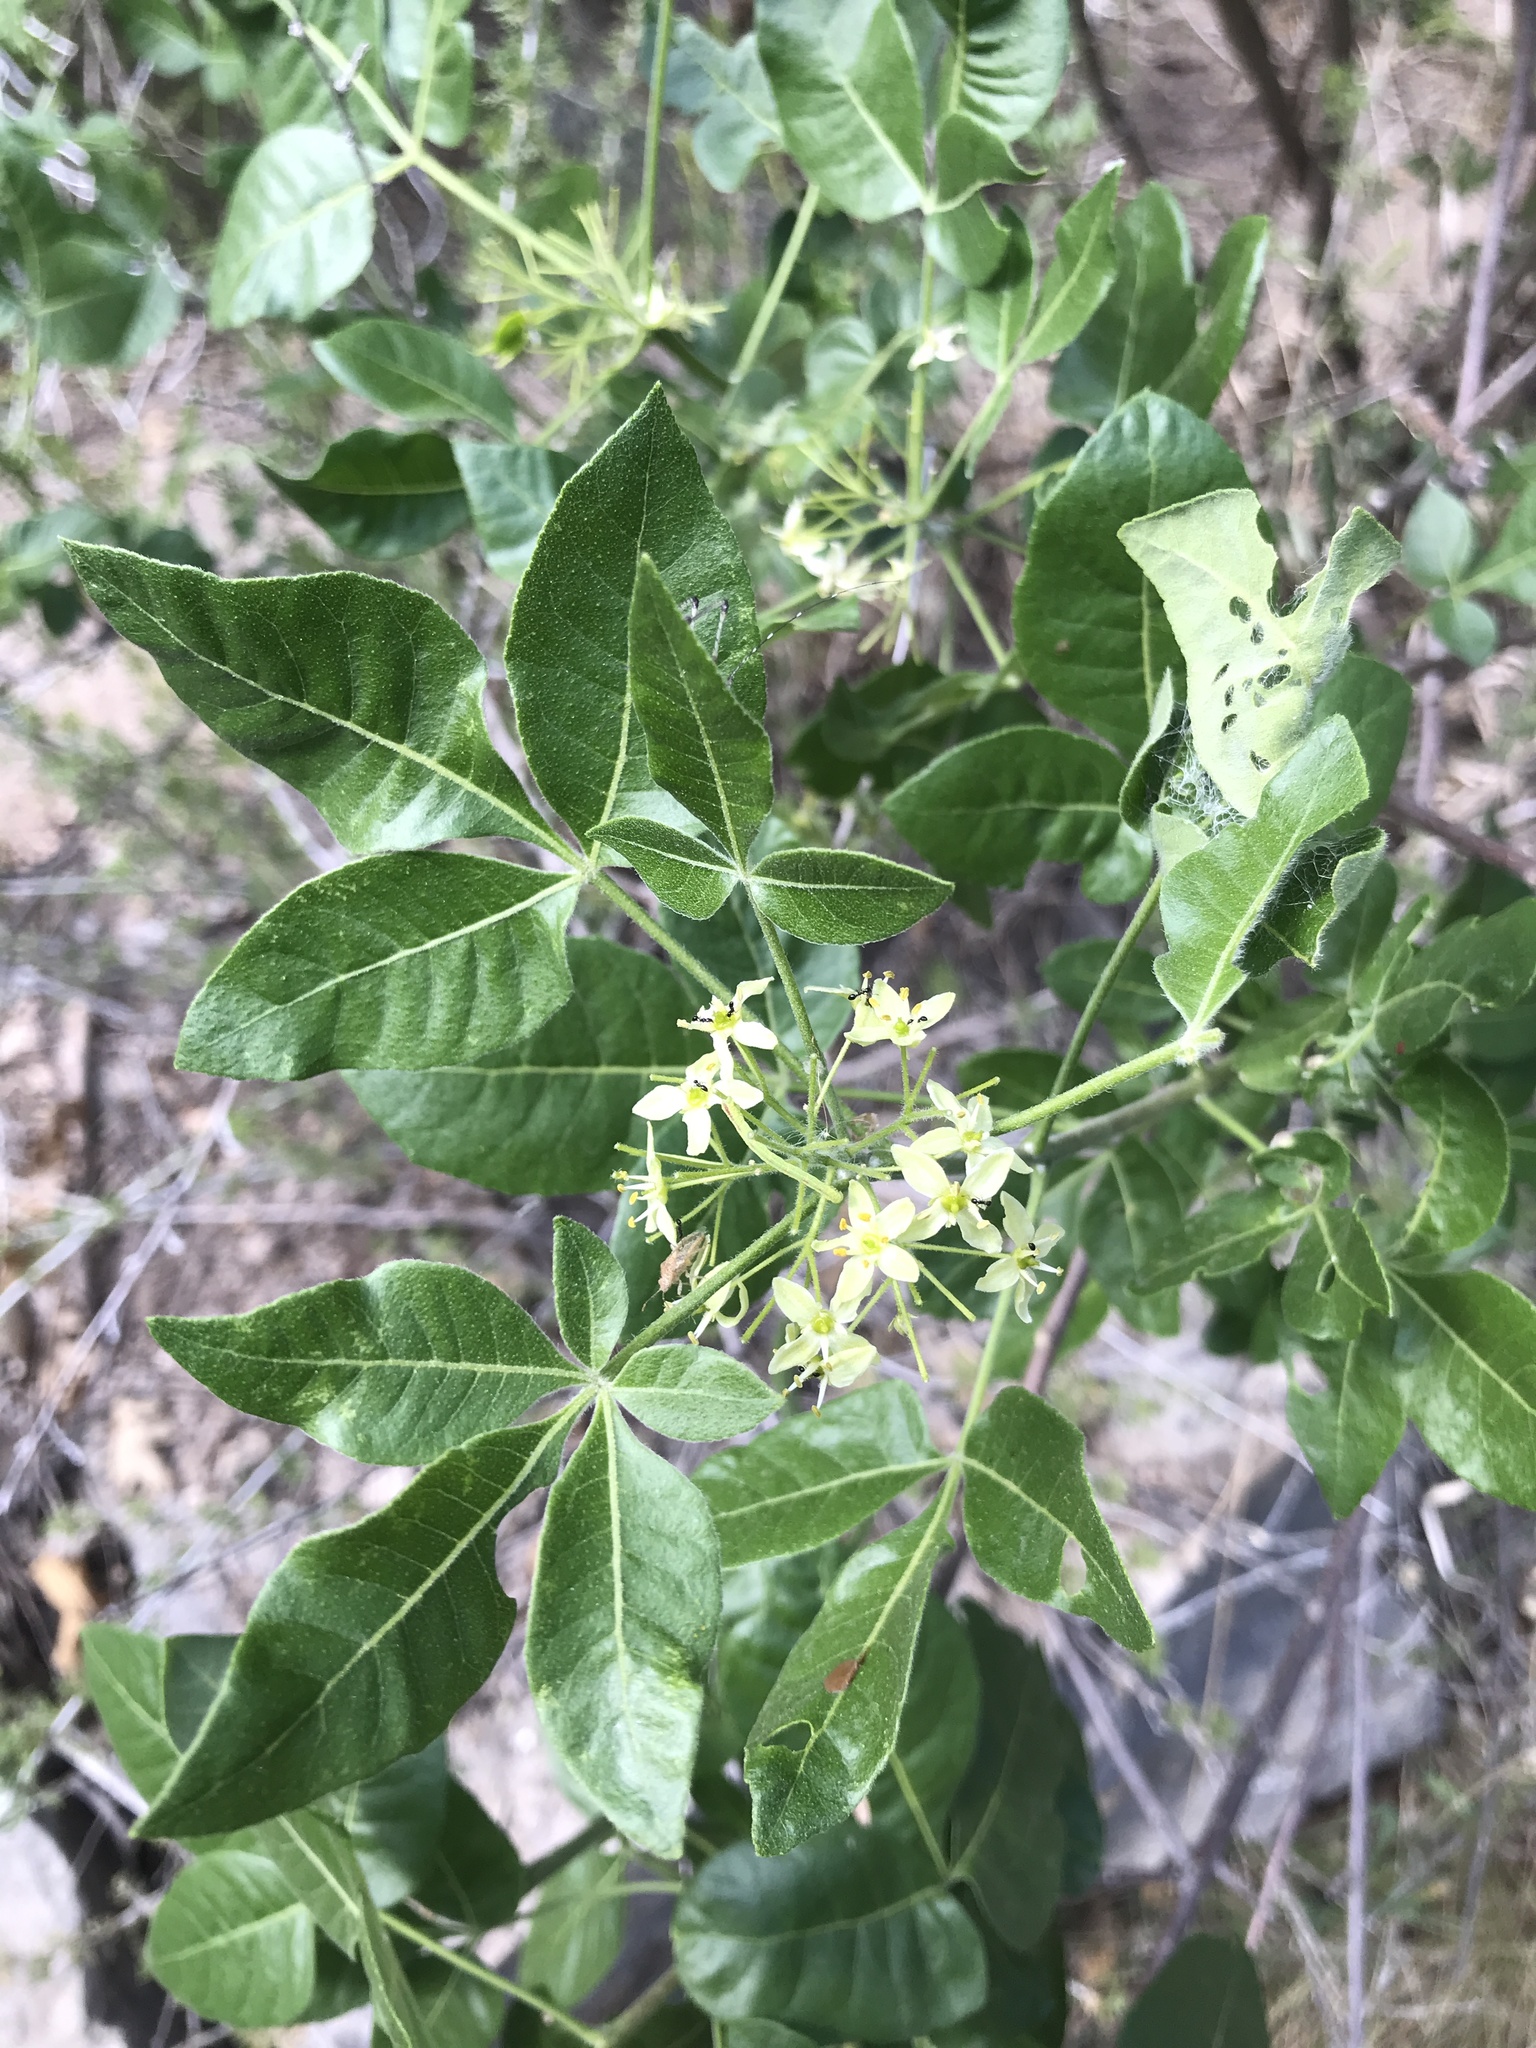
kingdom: Plantae
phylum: Tracheophyta
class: Magnoliopsida
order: Sapindales
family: Rutaceae
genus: Ptelea
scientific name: Ptelea trifoliata
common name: Common hop-tree
